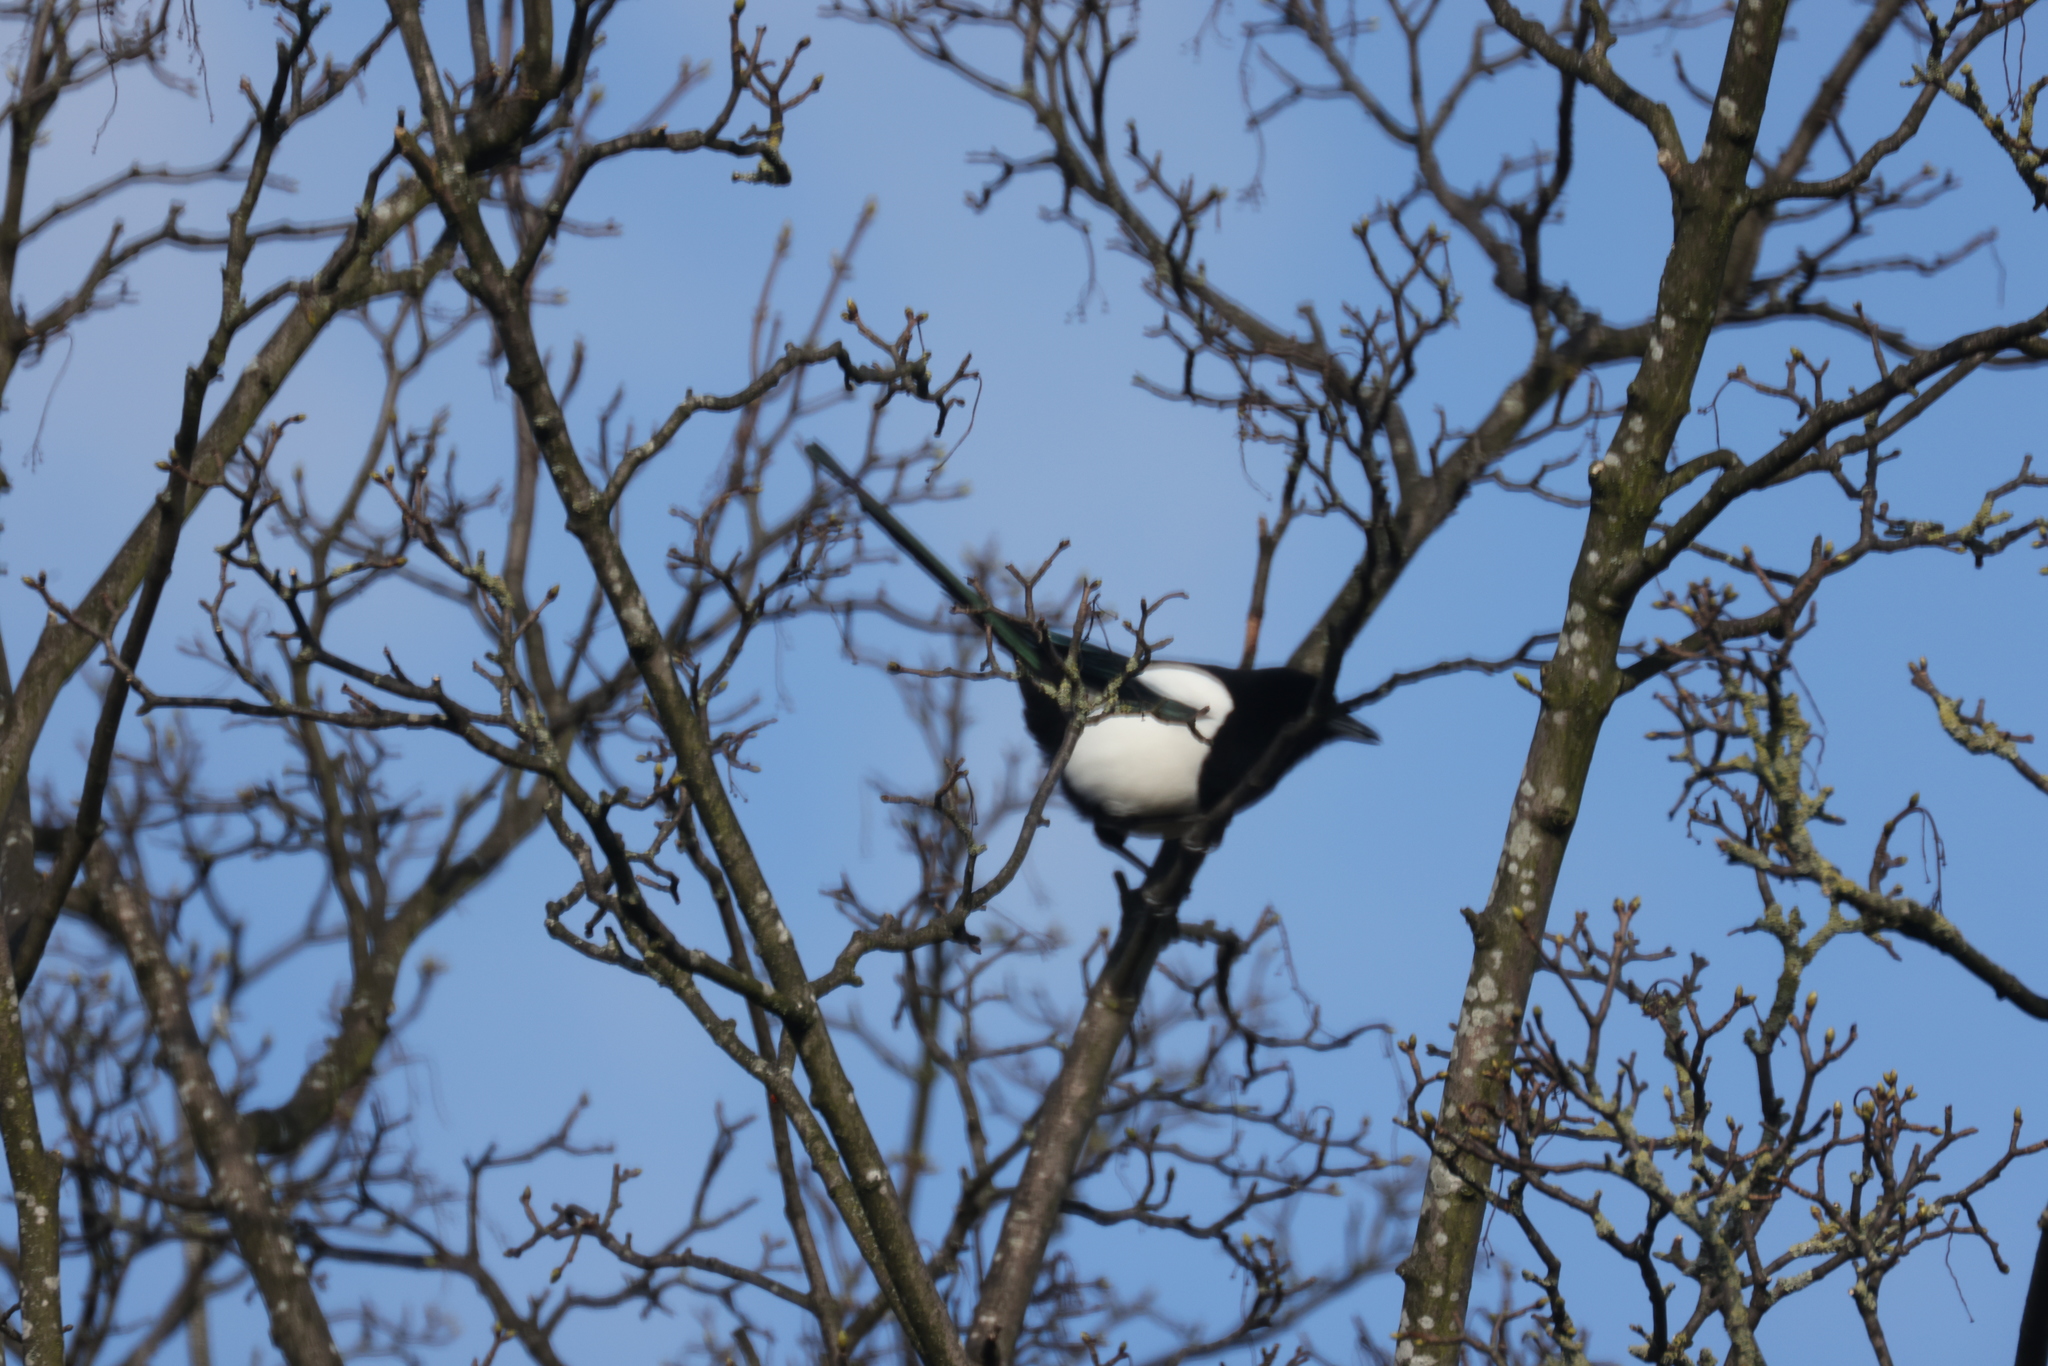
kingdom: Animalia
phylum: Chordata
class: Aves
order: Passeriformes
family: Corvidae
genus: Pica
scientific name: Pica pica
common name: Eurasian magpie
